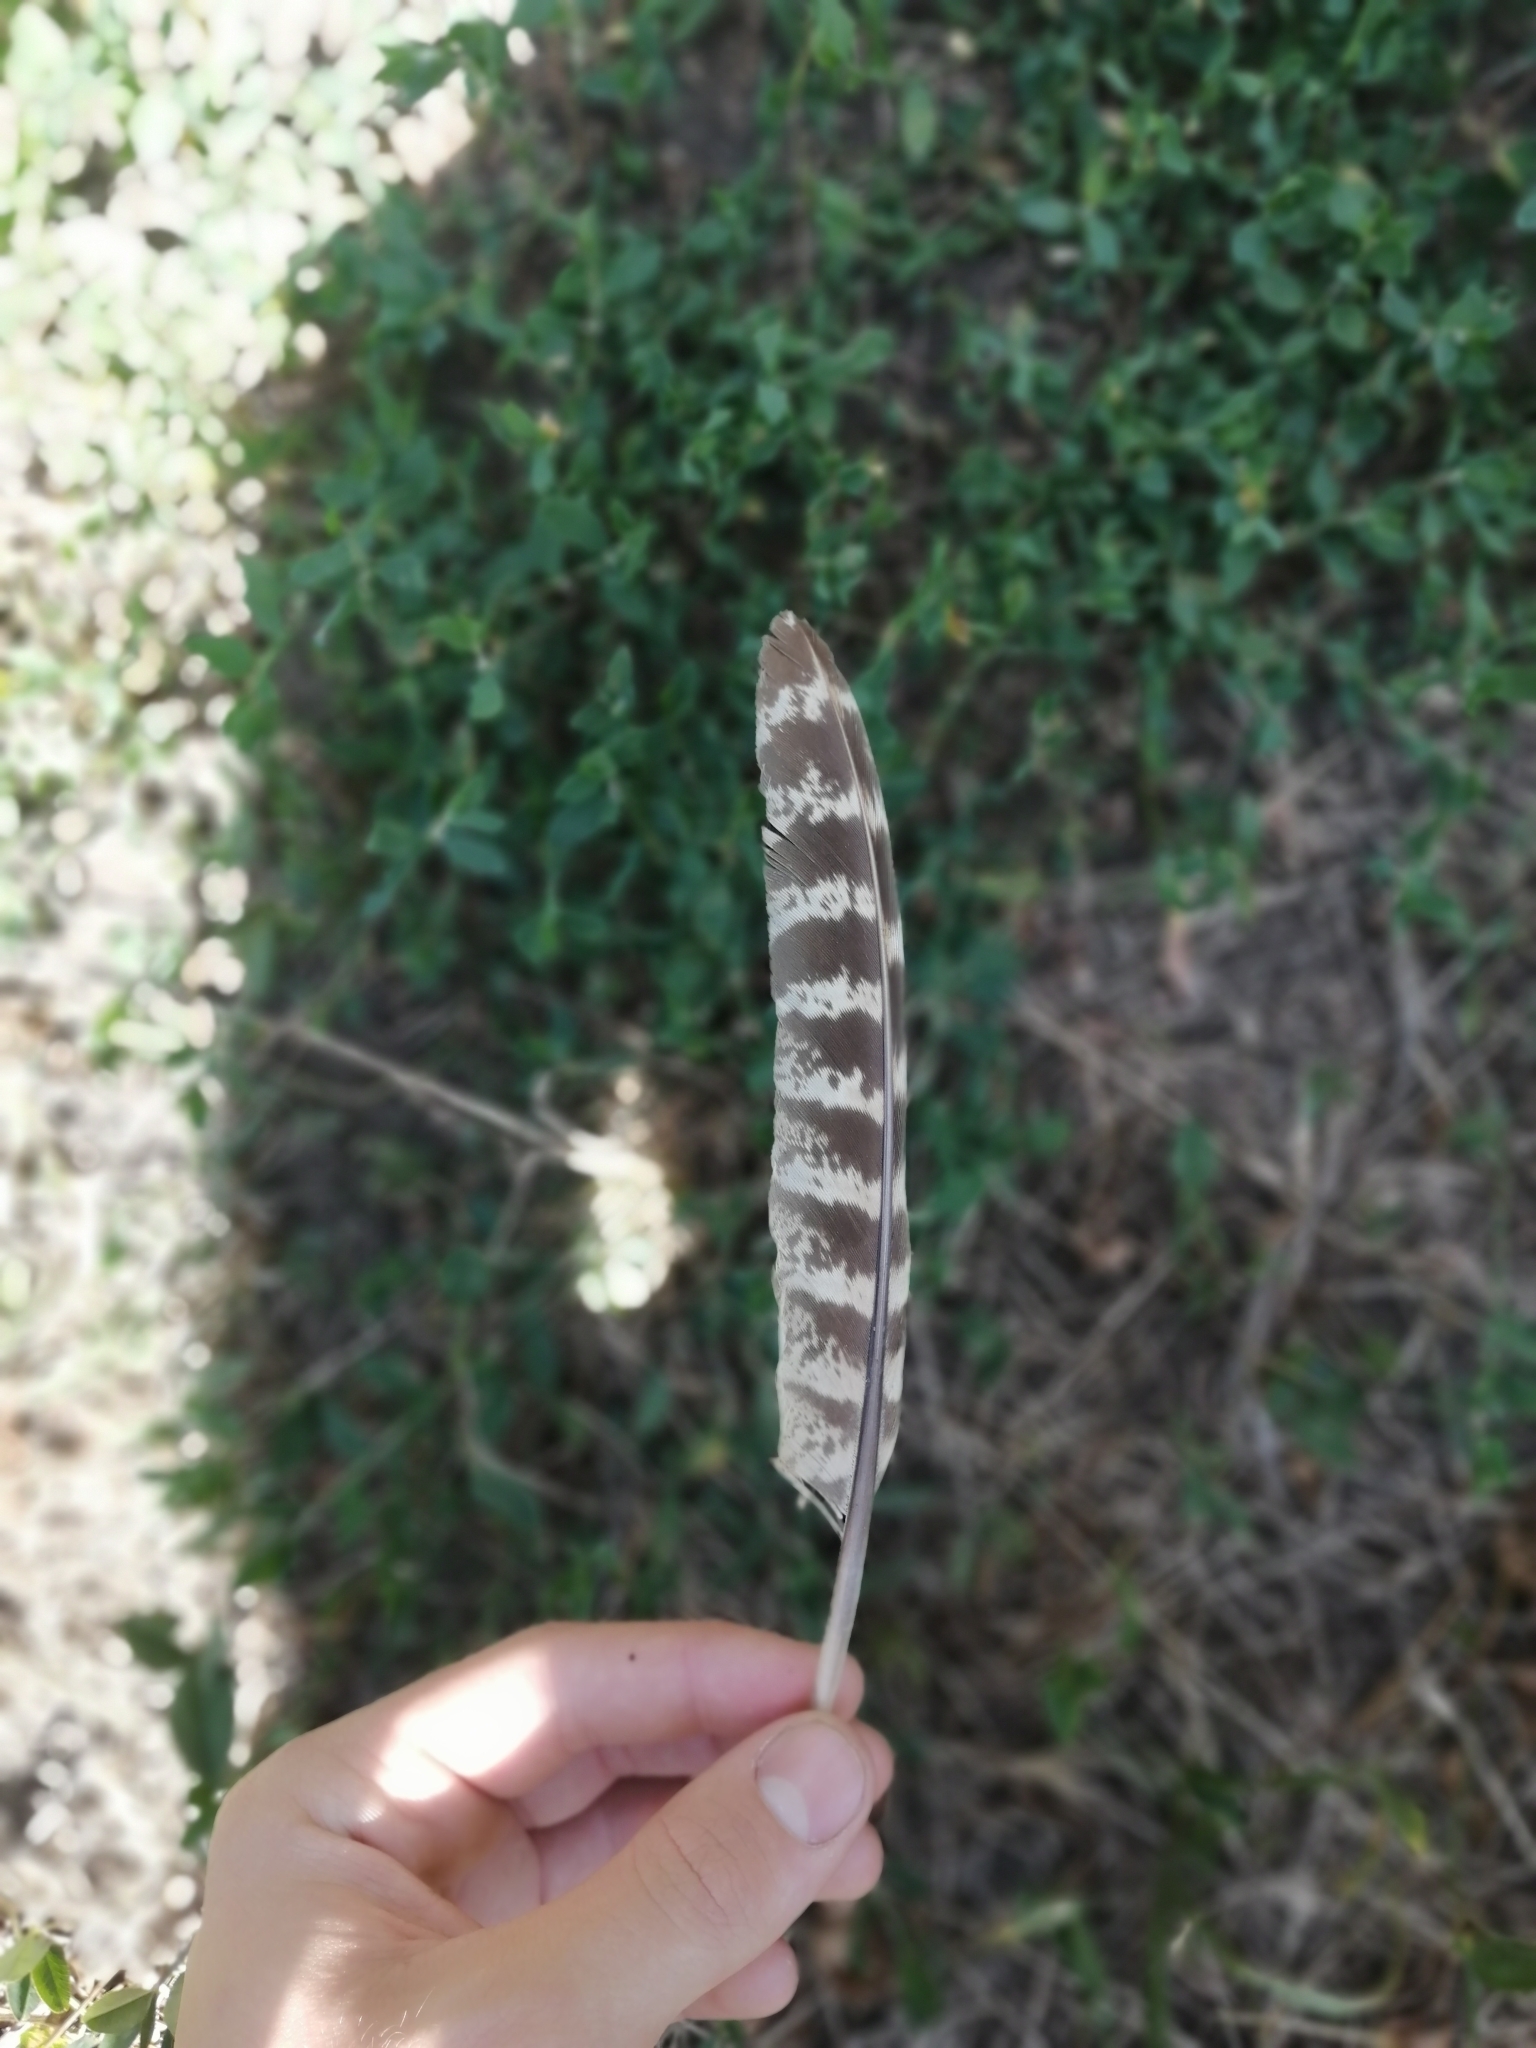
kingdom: Animalia
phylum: Chordata
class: Aves
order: Galliformes
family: Phasianidae
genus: Phasianus
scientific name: Phasianus colchicus
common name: Common pheasant
